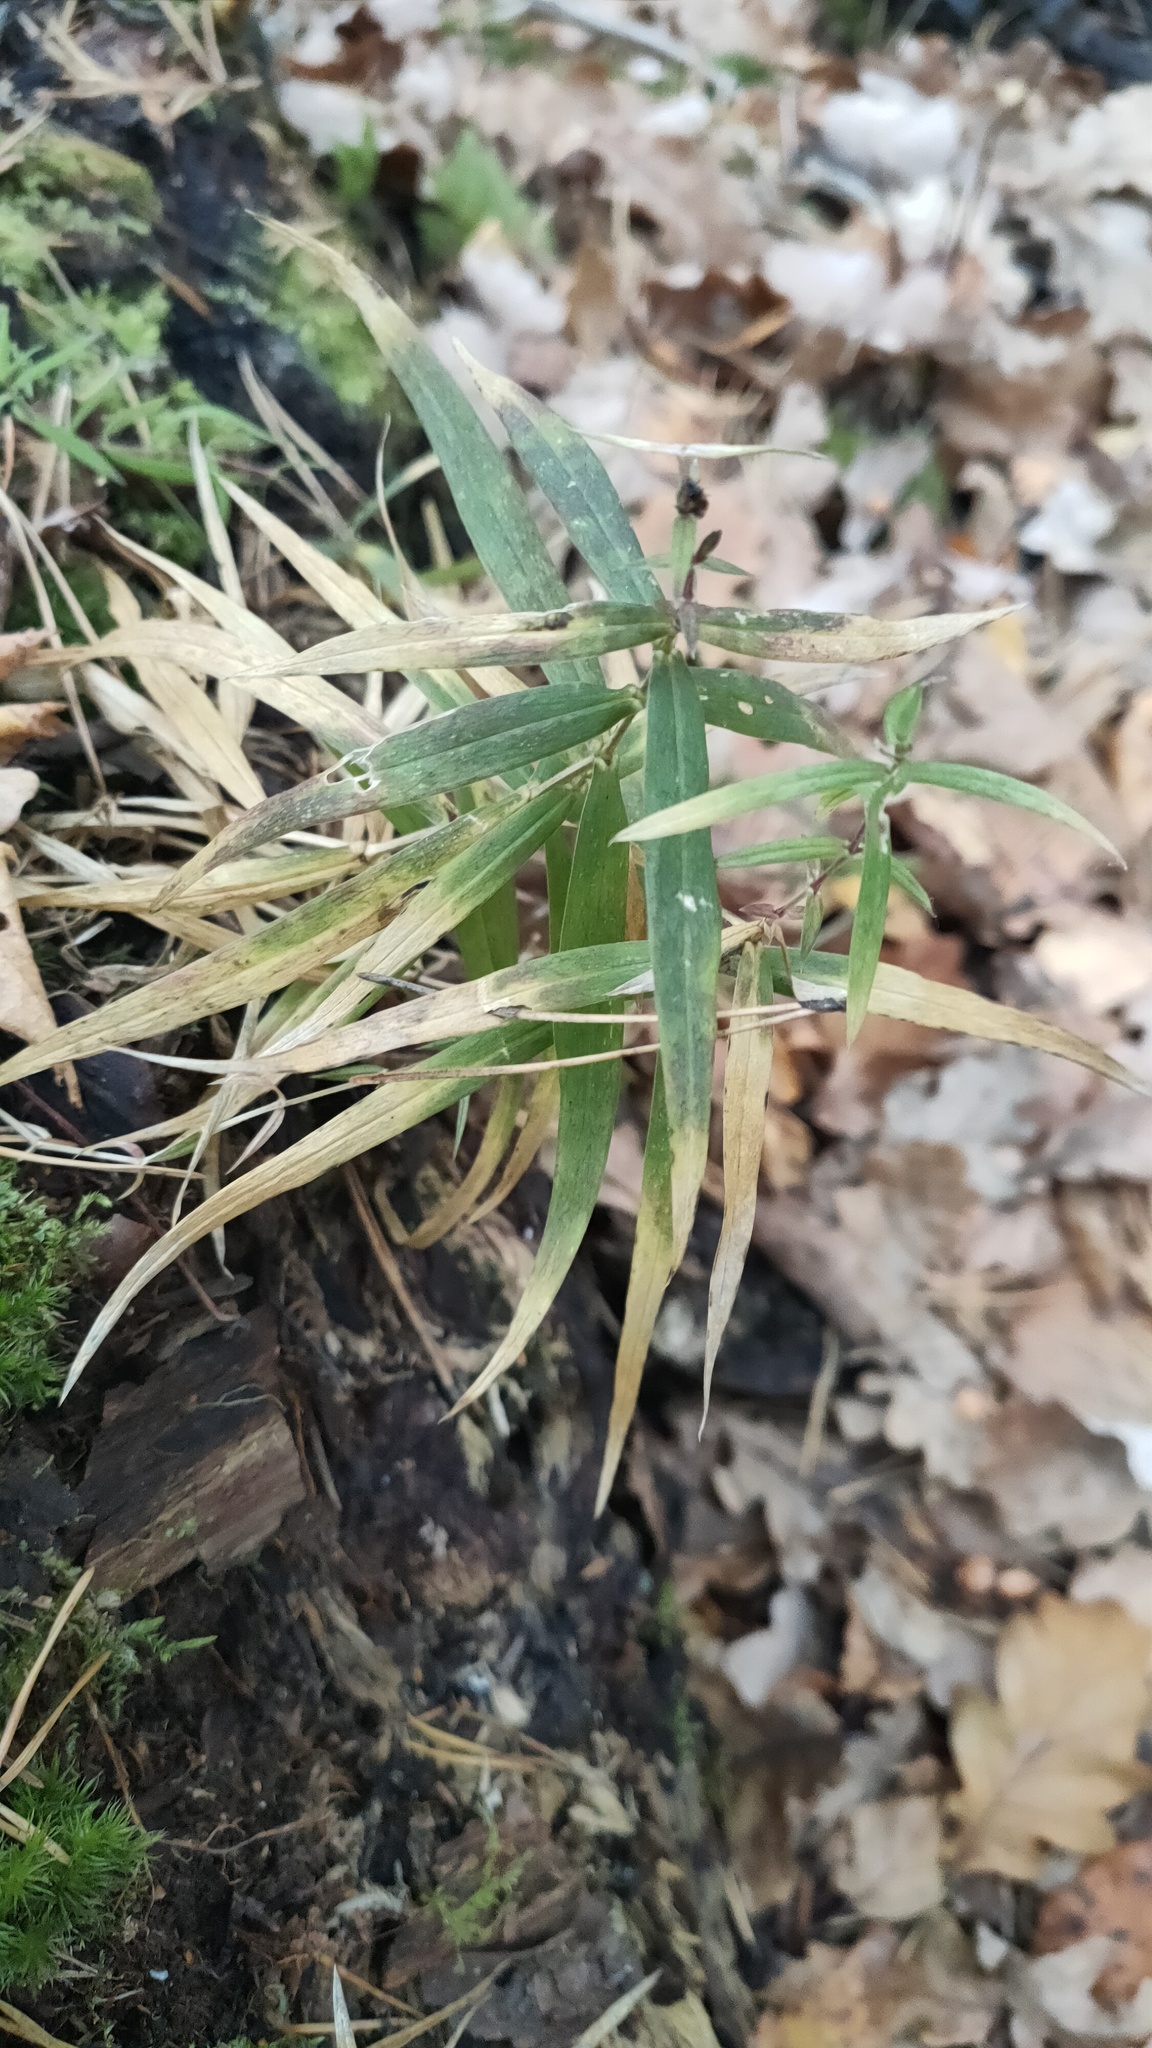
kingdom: Plantae
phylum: Tracheophyta
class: Magnoliopsida
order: Caryophyllales
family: Caryophyllaceae
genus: Rabelera
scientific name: Rabelera holostea
